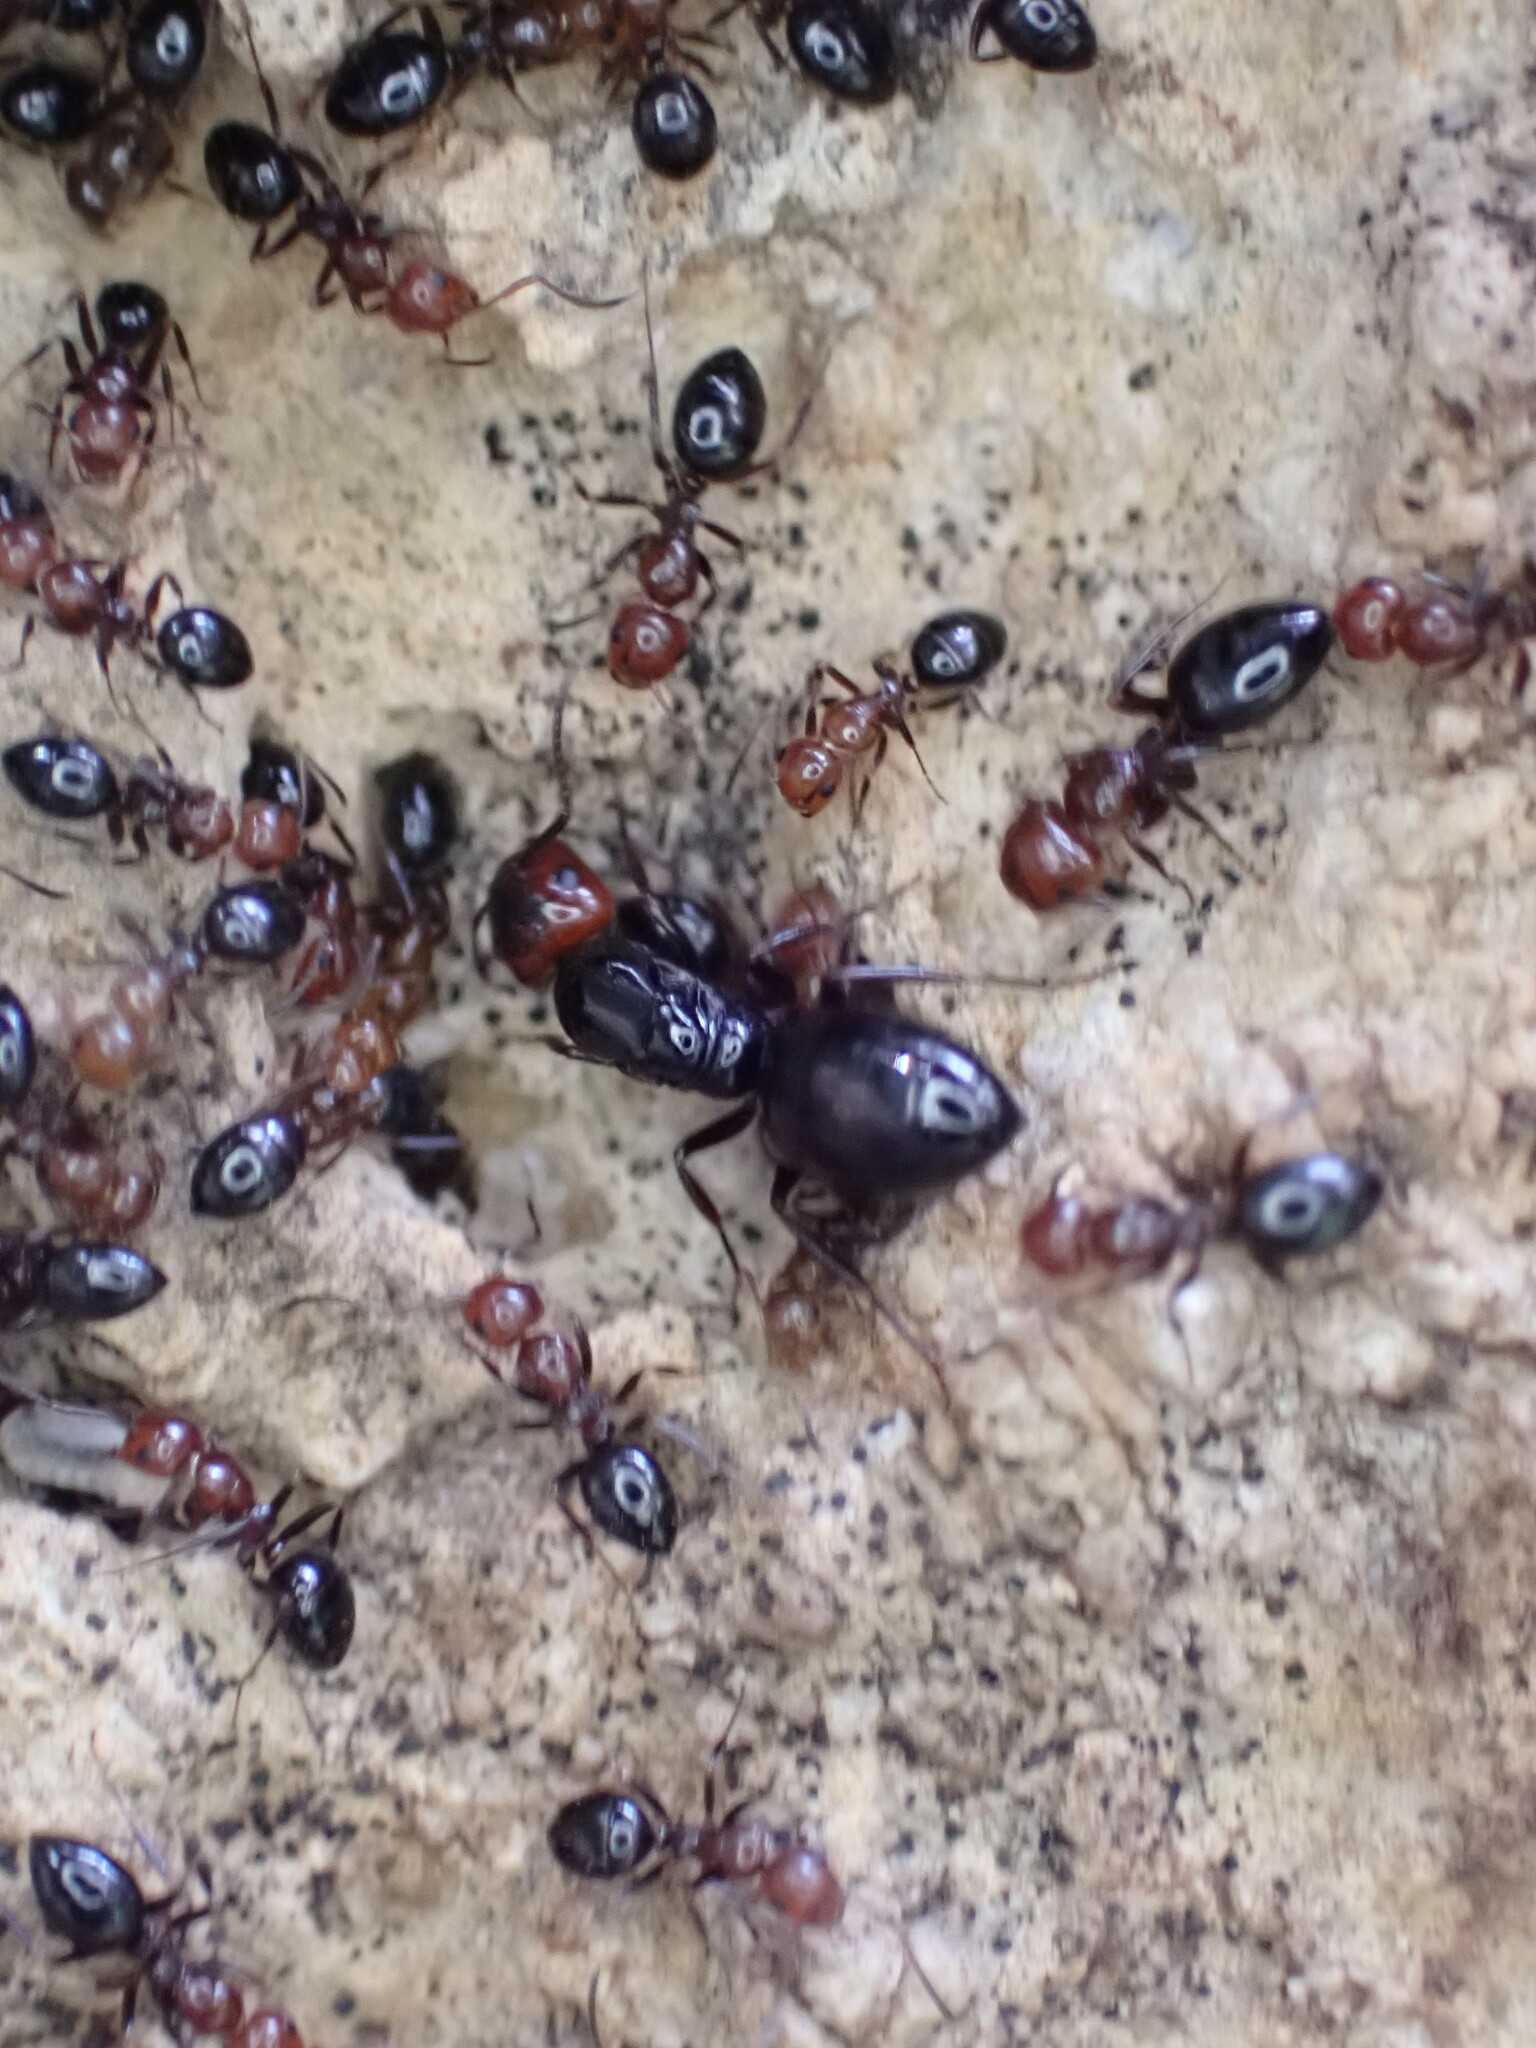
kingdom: Animalia
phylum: Arthropoda
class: Insecta
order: Hymenoptera
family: Formicidae
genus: Camponotus
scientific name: Camponotus lateralis
